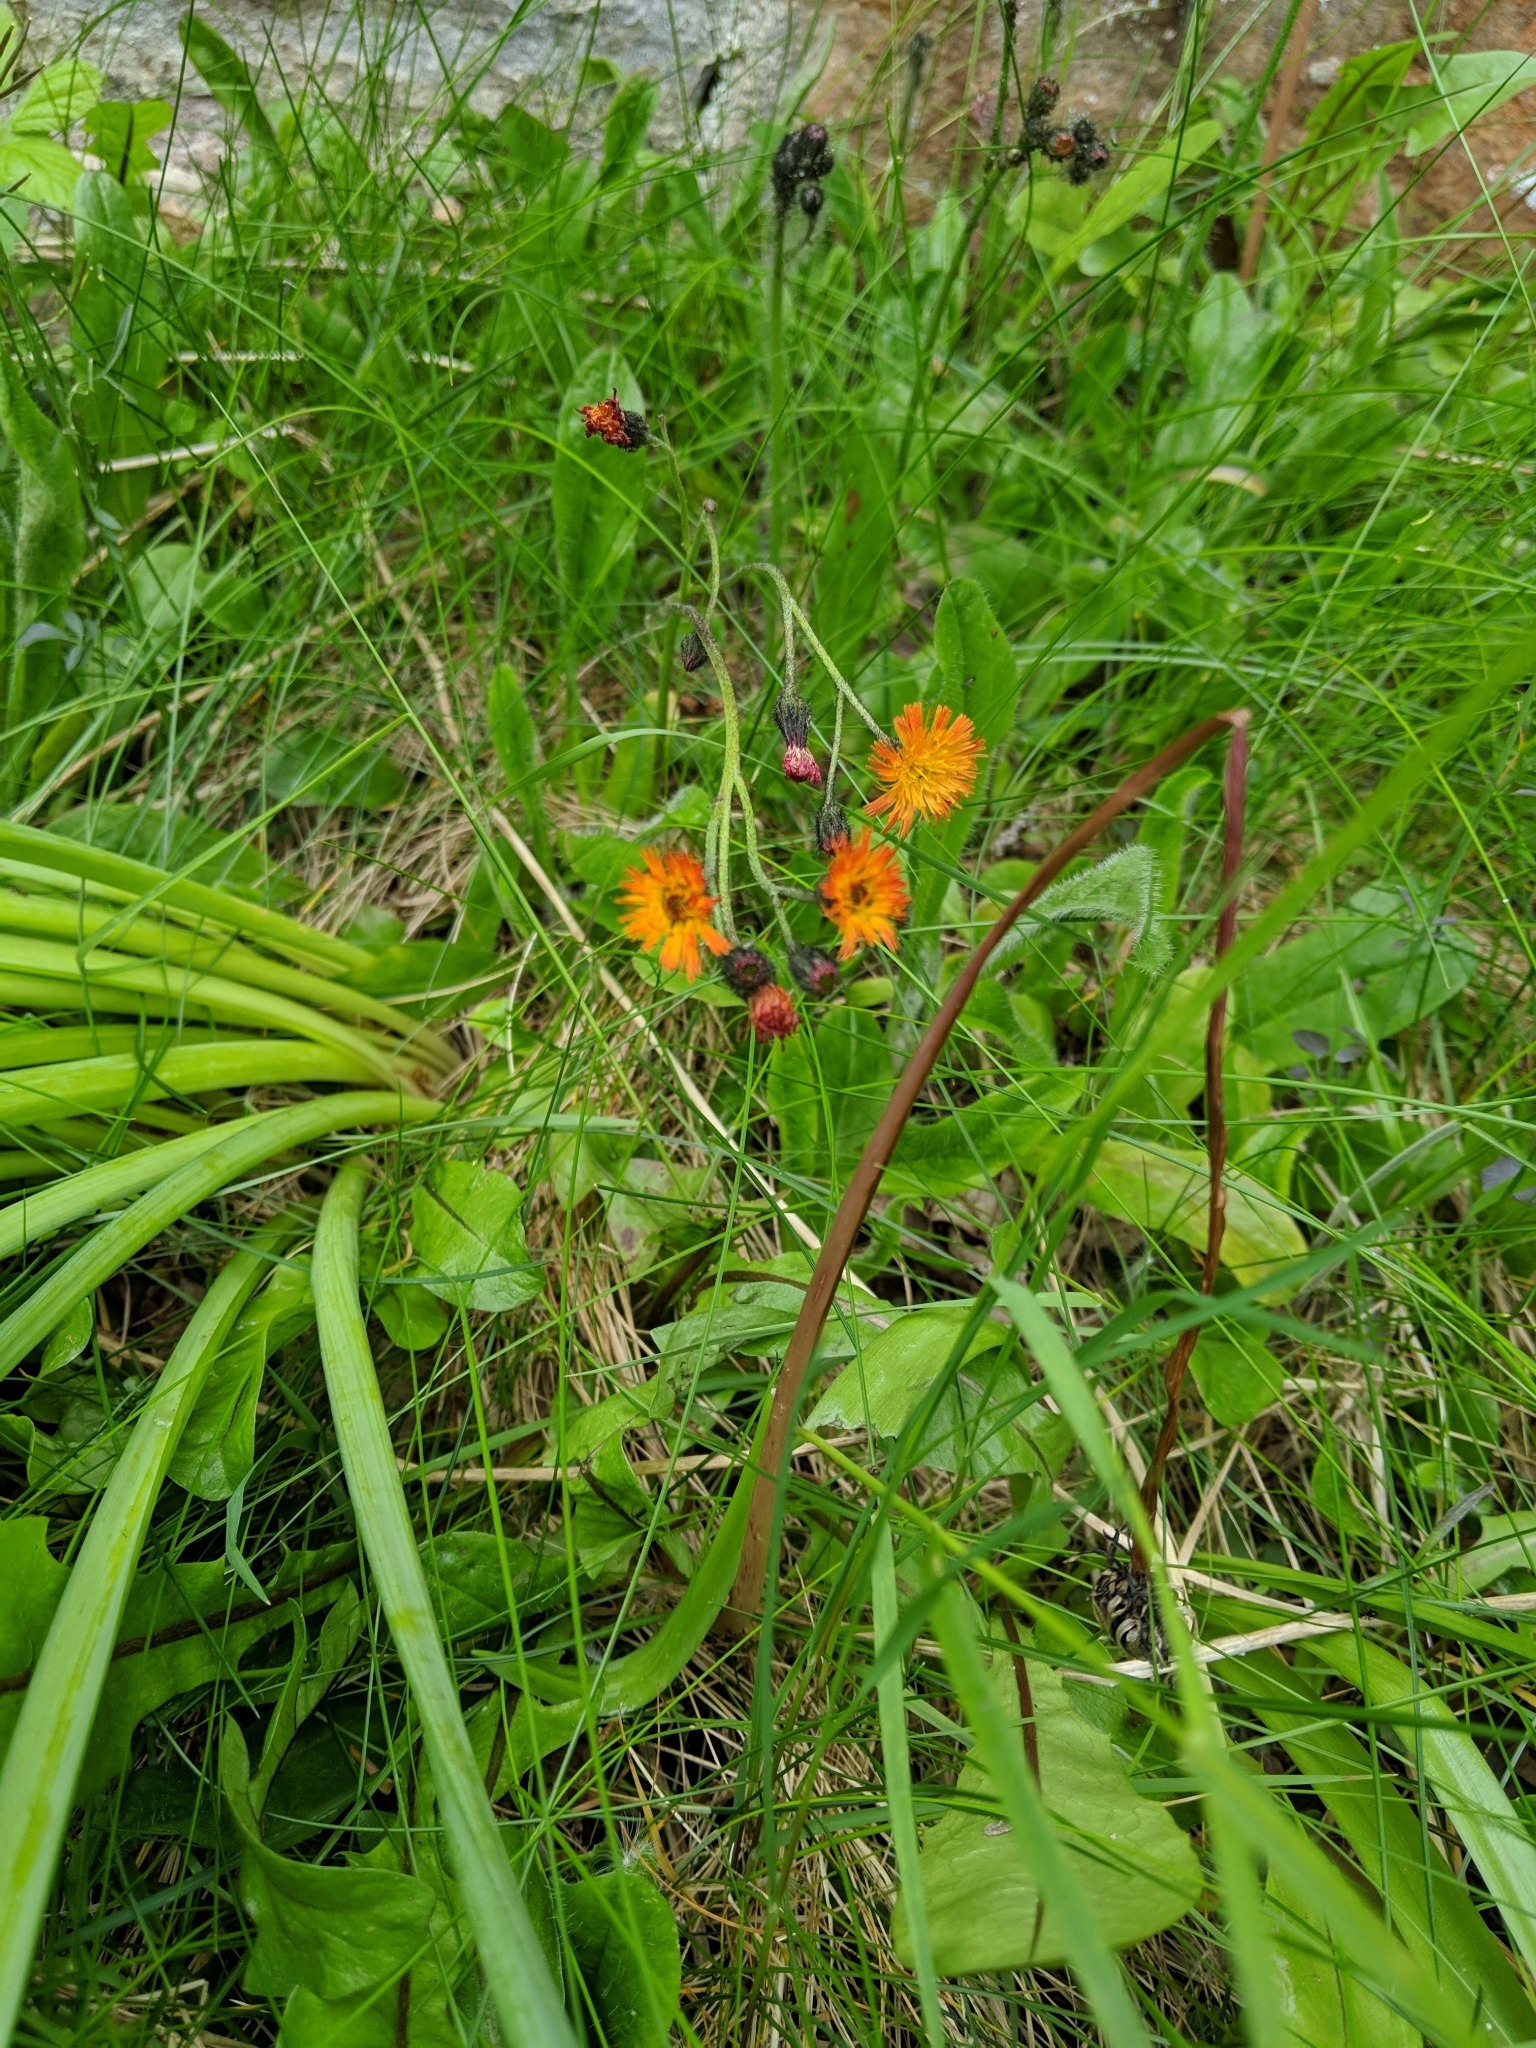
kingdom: Plantae
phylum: Tracheophyta
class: Magnoliopsida
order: Asterales
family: Asteraceae
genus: Pilosella
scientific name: Pilosella aurantiaca
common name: Fox-and-cubs
